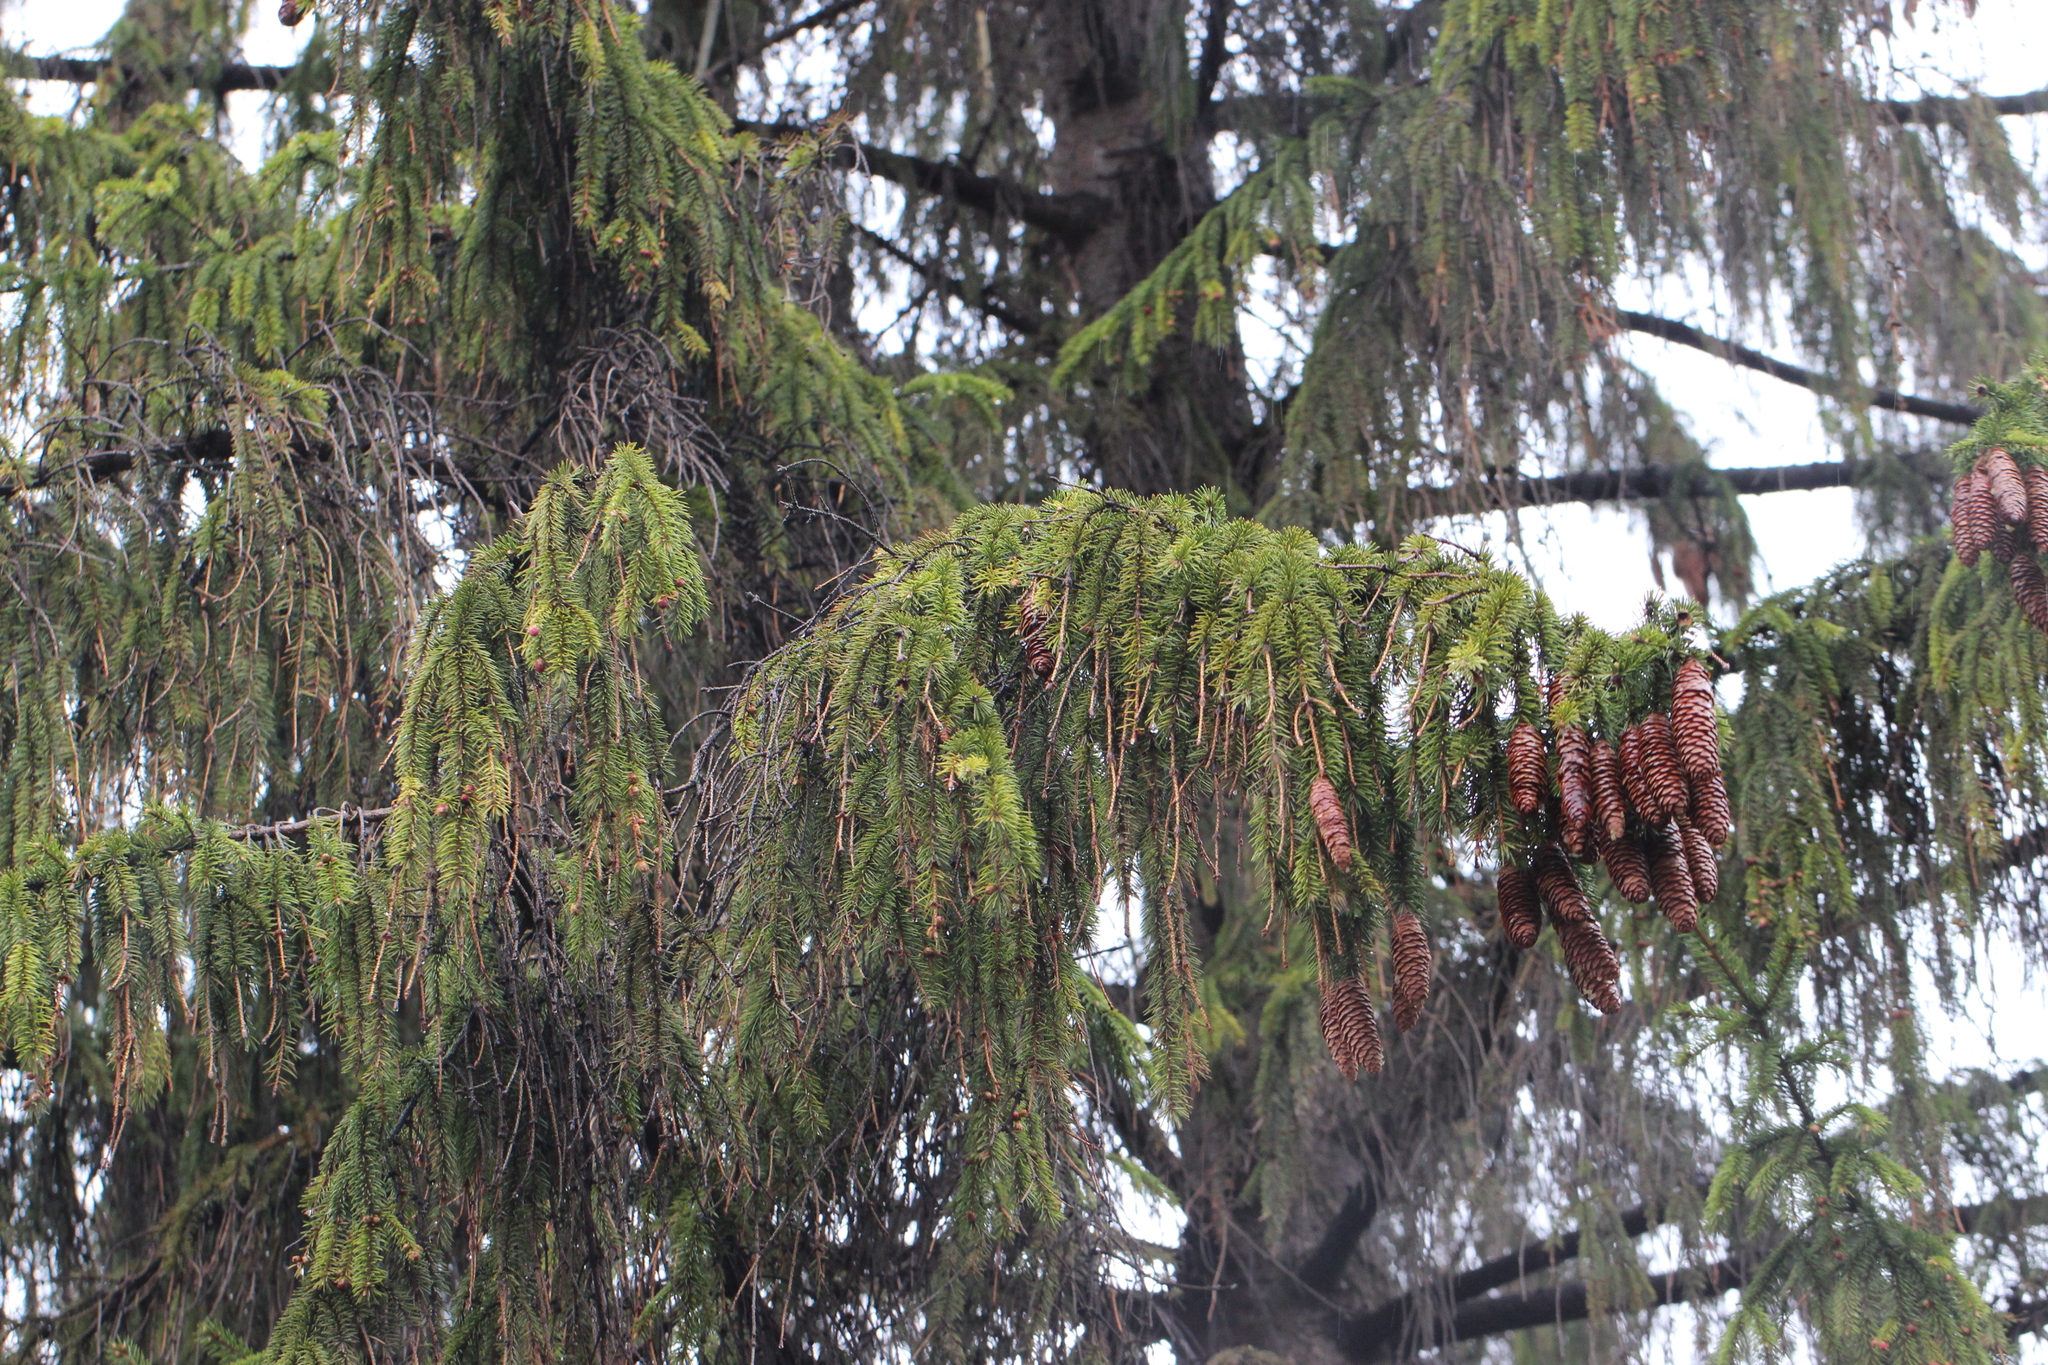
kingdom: Plantae
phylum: Tracheophyta
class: Pinopsida
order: Pinales
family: Pinaceae
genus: Picea
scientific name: Picea abies
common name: Norway spruce
